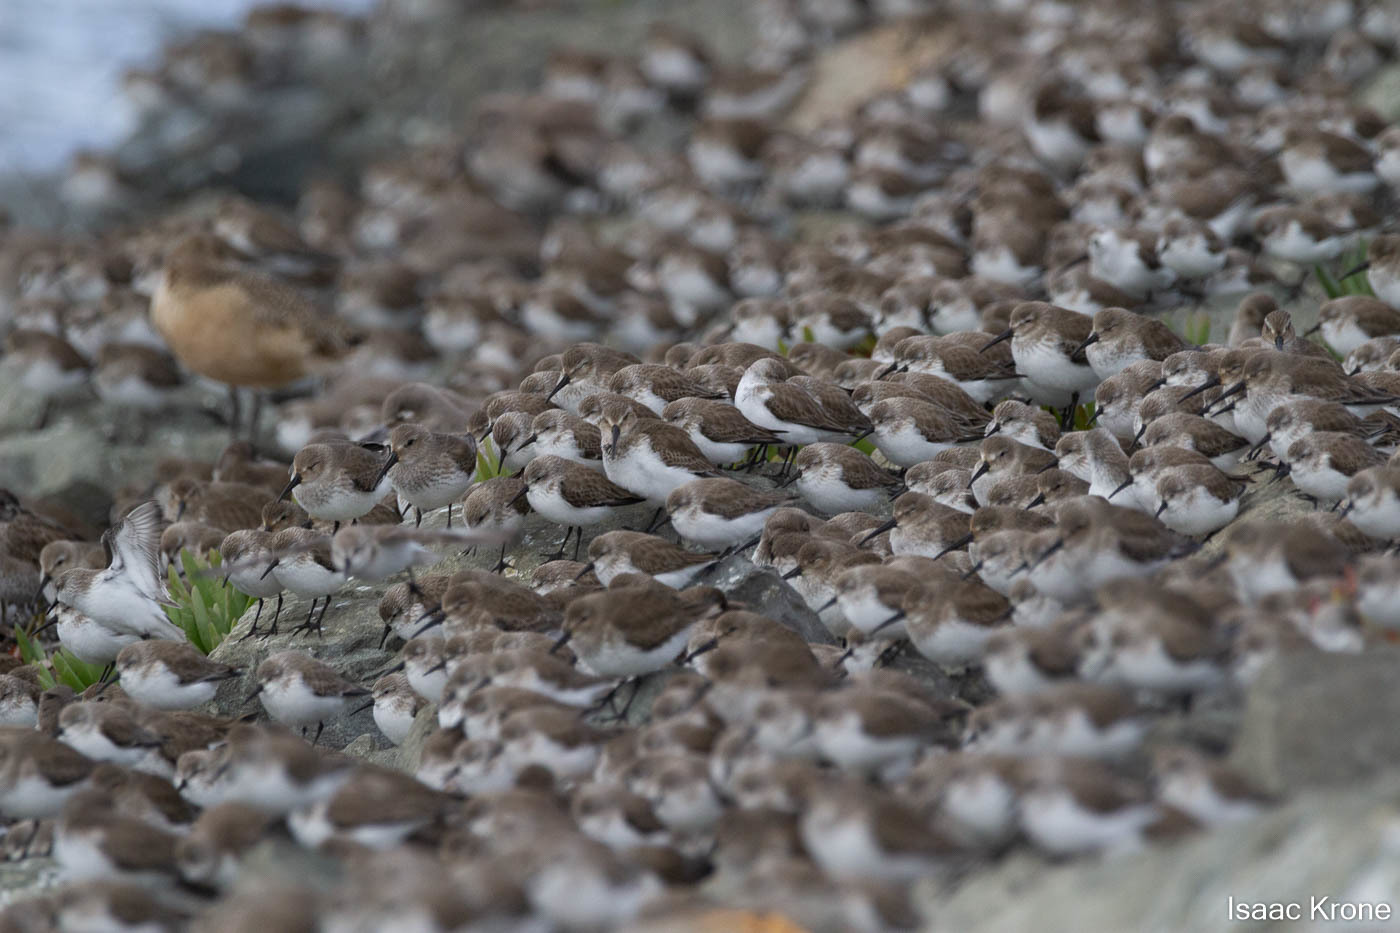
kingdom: Animalia
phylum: Chordata
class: Aves
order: Charadriiformes
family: Scolopacidae
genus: Calidris
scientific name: Calidris alpina
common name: Dunlin
